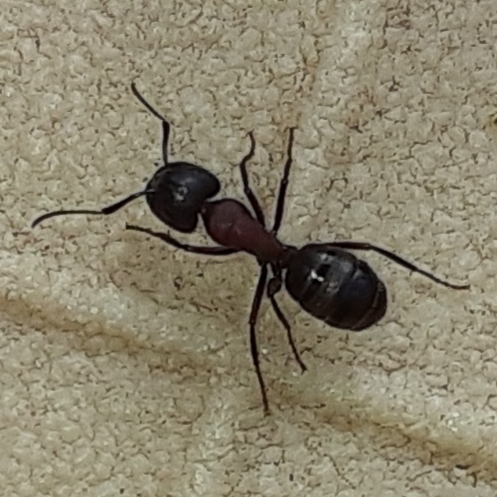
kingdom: Animalia
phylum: Arthropoda
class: Insecta
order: Hymenoptera
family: Formicidae
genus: Camponotus
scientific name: Camponotus novaeboracensis
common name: New york carpenter ant
